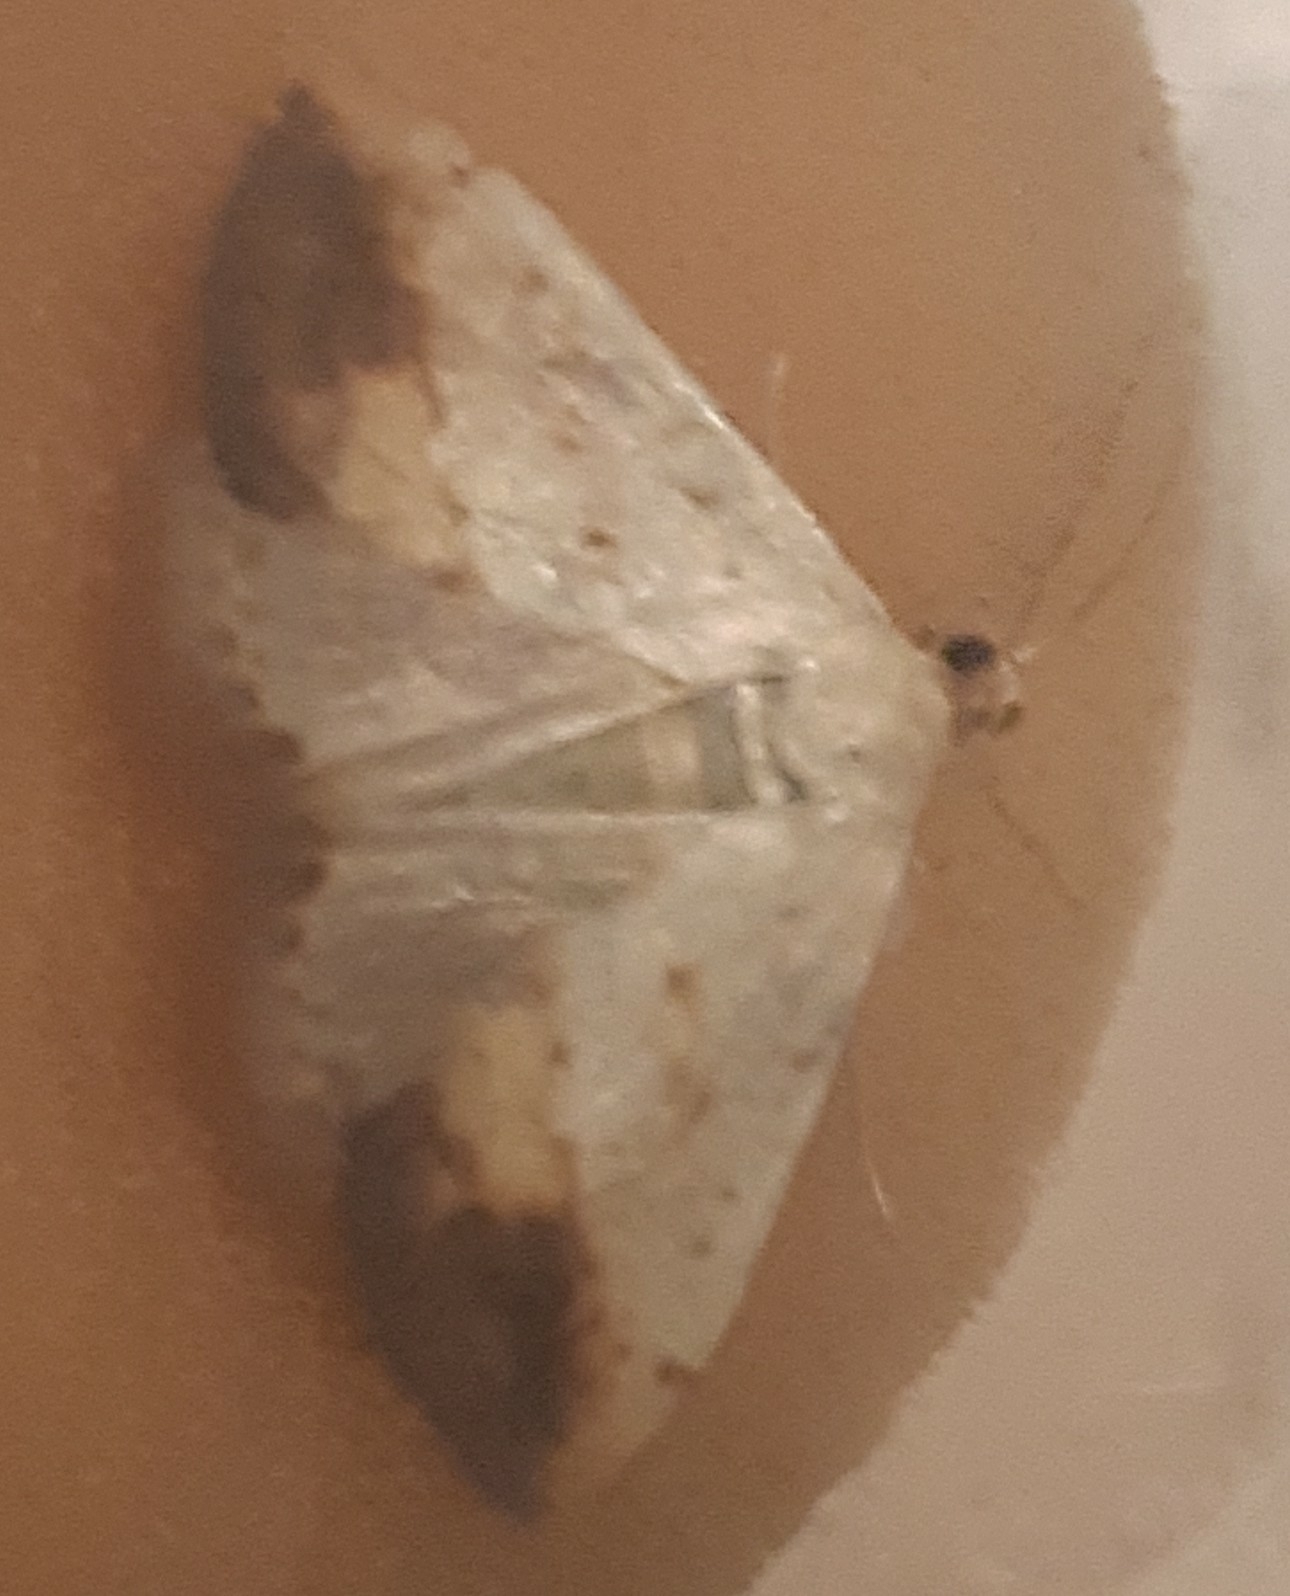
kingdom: Animalia
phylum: Arthropoda
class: Insecta
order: Lepidoptera
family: Crambidae
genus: Evergestis
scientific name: Evergestis extimalis
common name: Marbled yellow pearl
